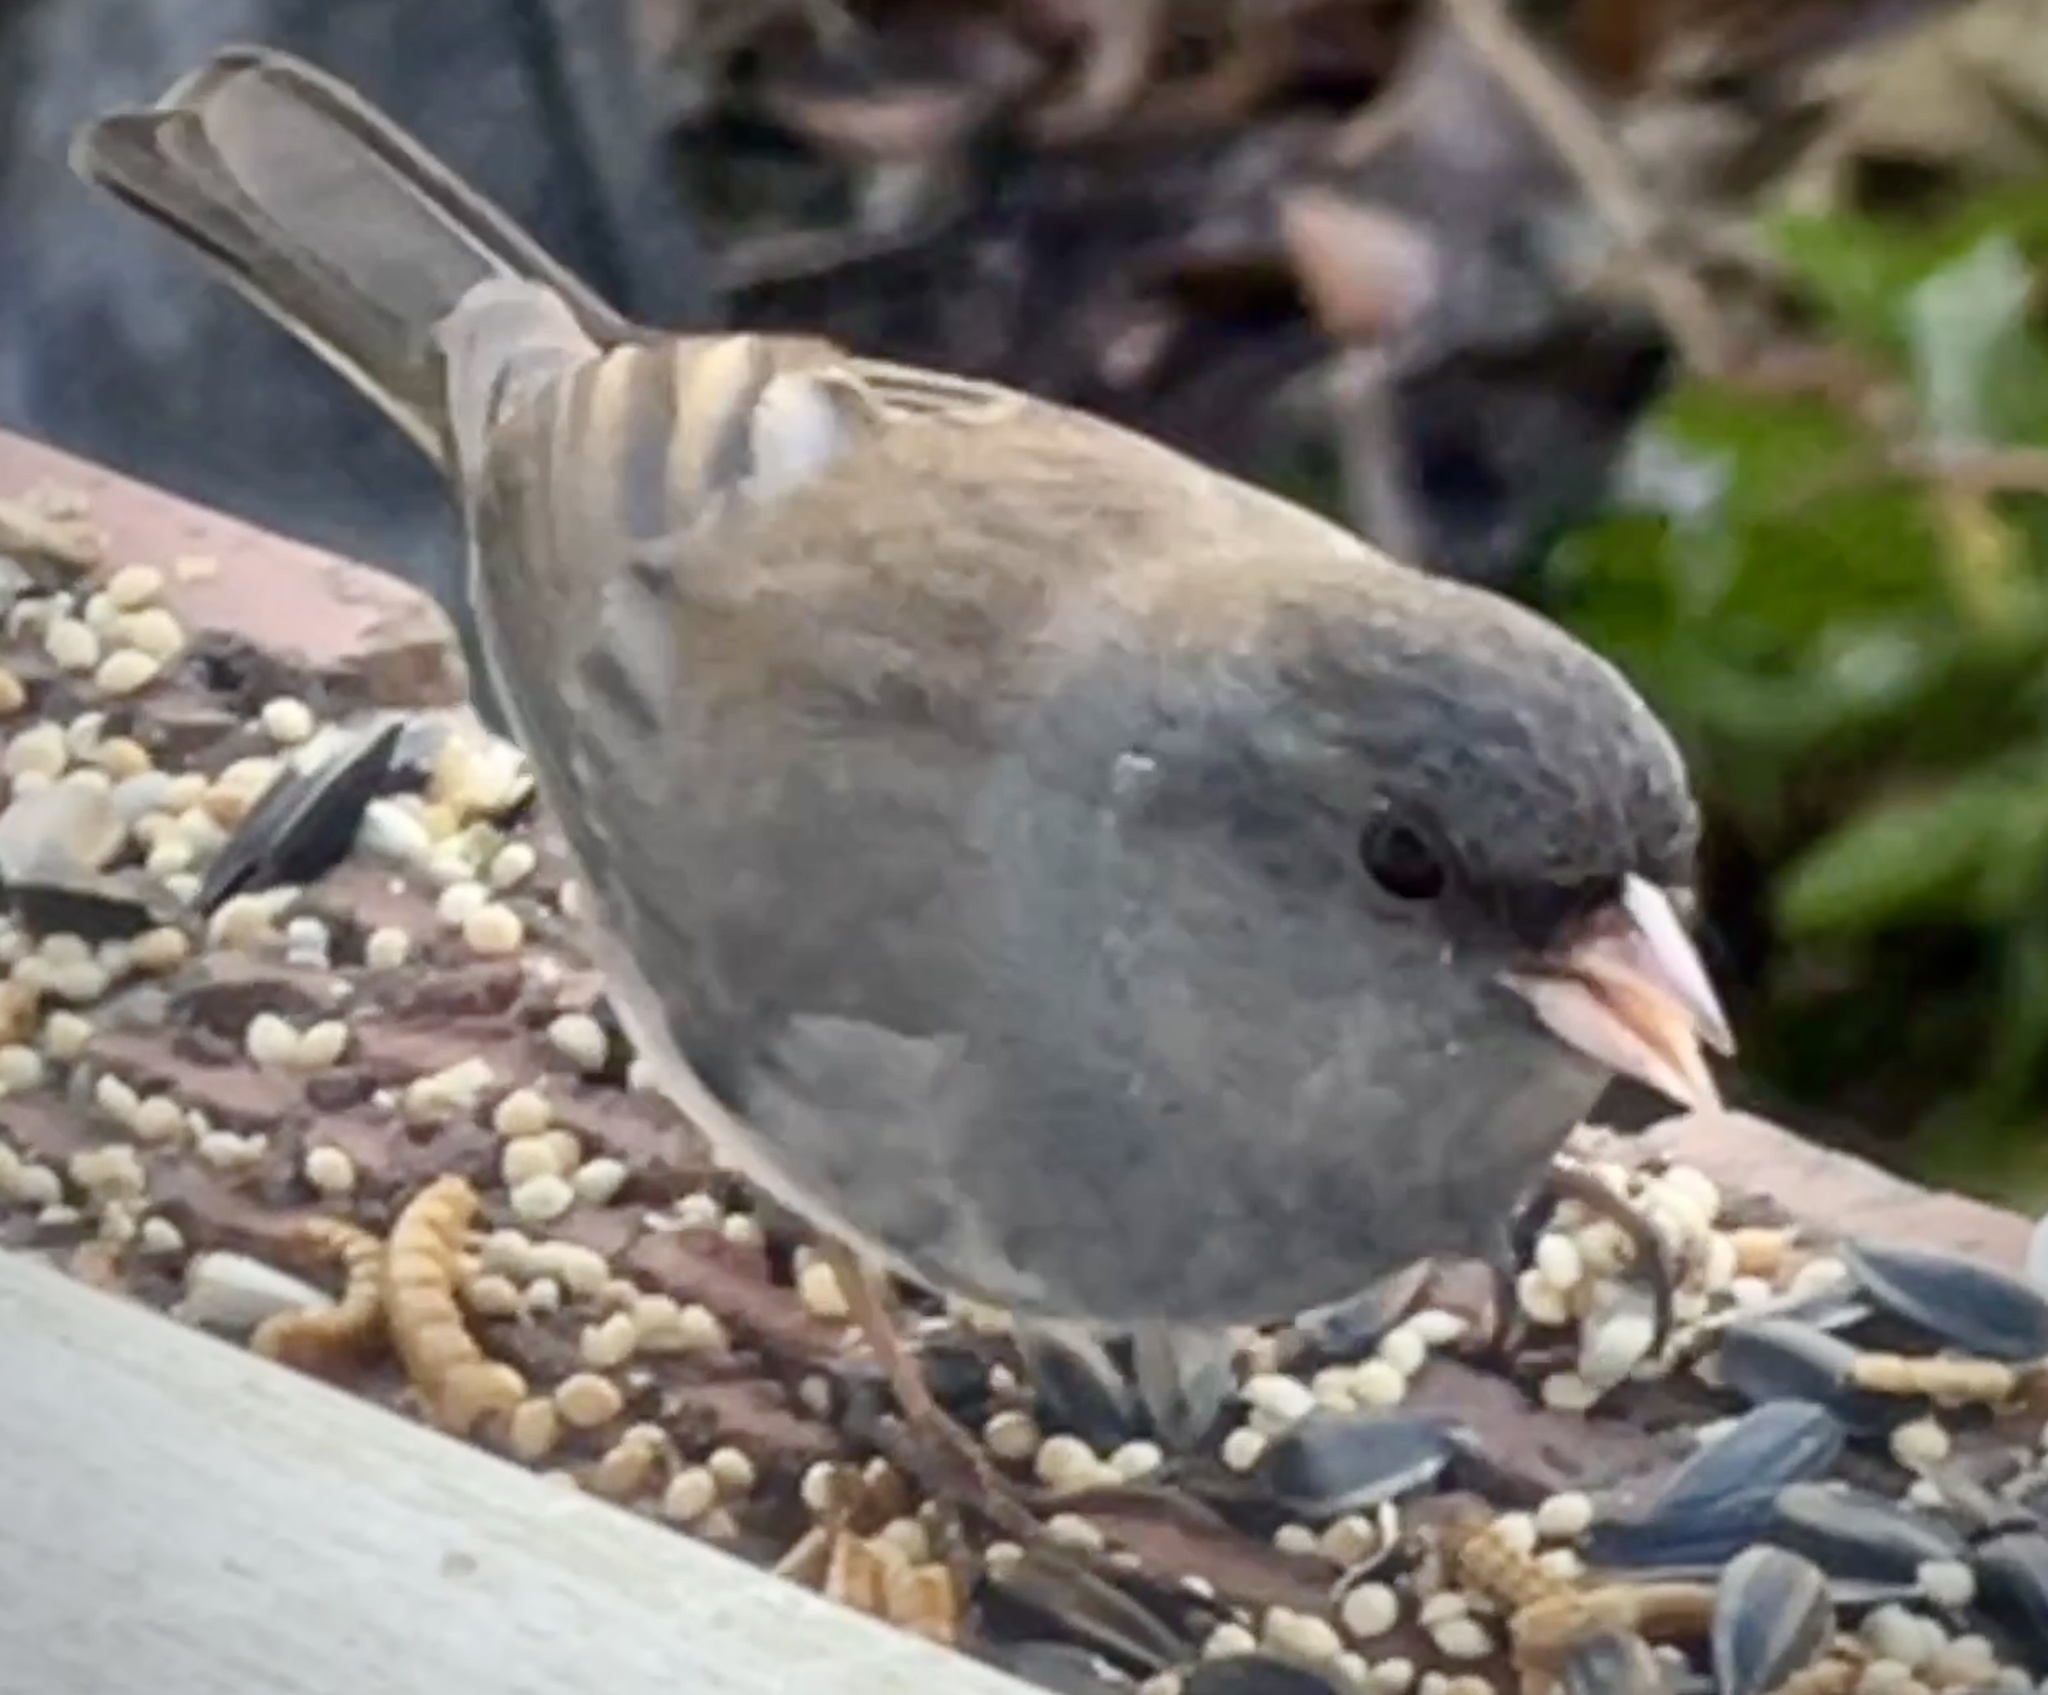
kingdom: Animalia
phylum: Chordata
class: Aves
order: Passeriformes
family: Passerellidae
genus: Junco
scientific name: Junco hyemalis
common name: Dark-eyed junco
